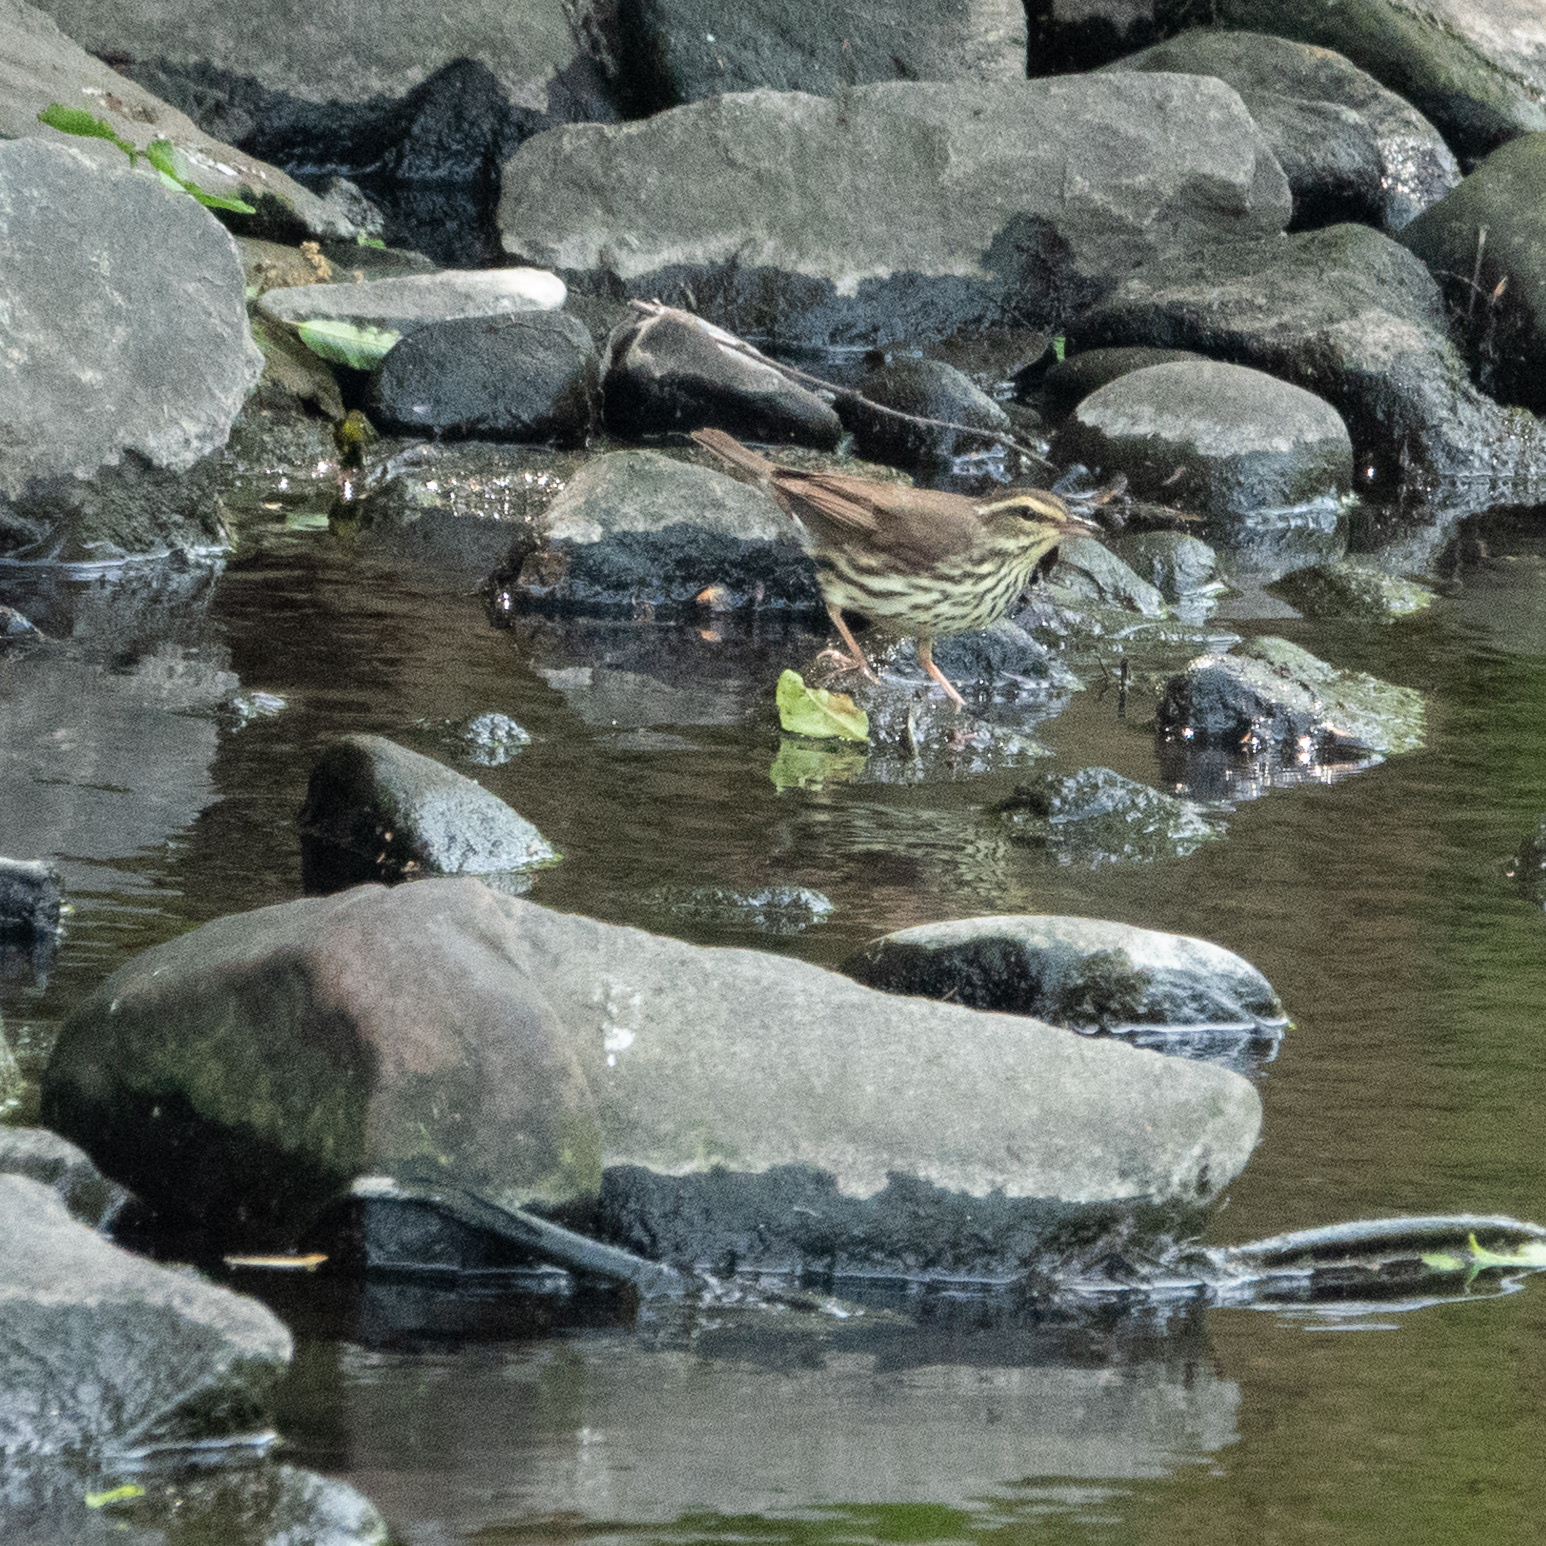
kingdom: Animalia
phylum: Chordata
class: Aves
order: Passeriformes
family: Parulidae
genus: Parkesia
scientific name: Parkesia noveboracensis
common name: Northern waterthrush
